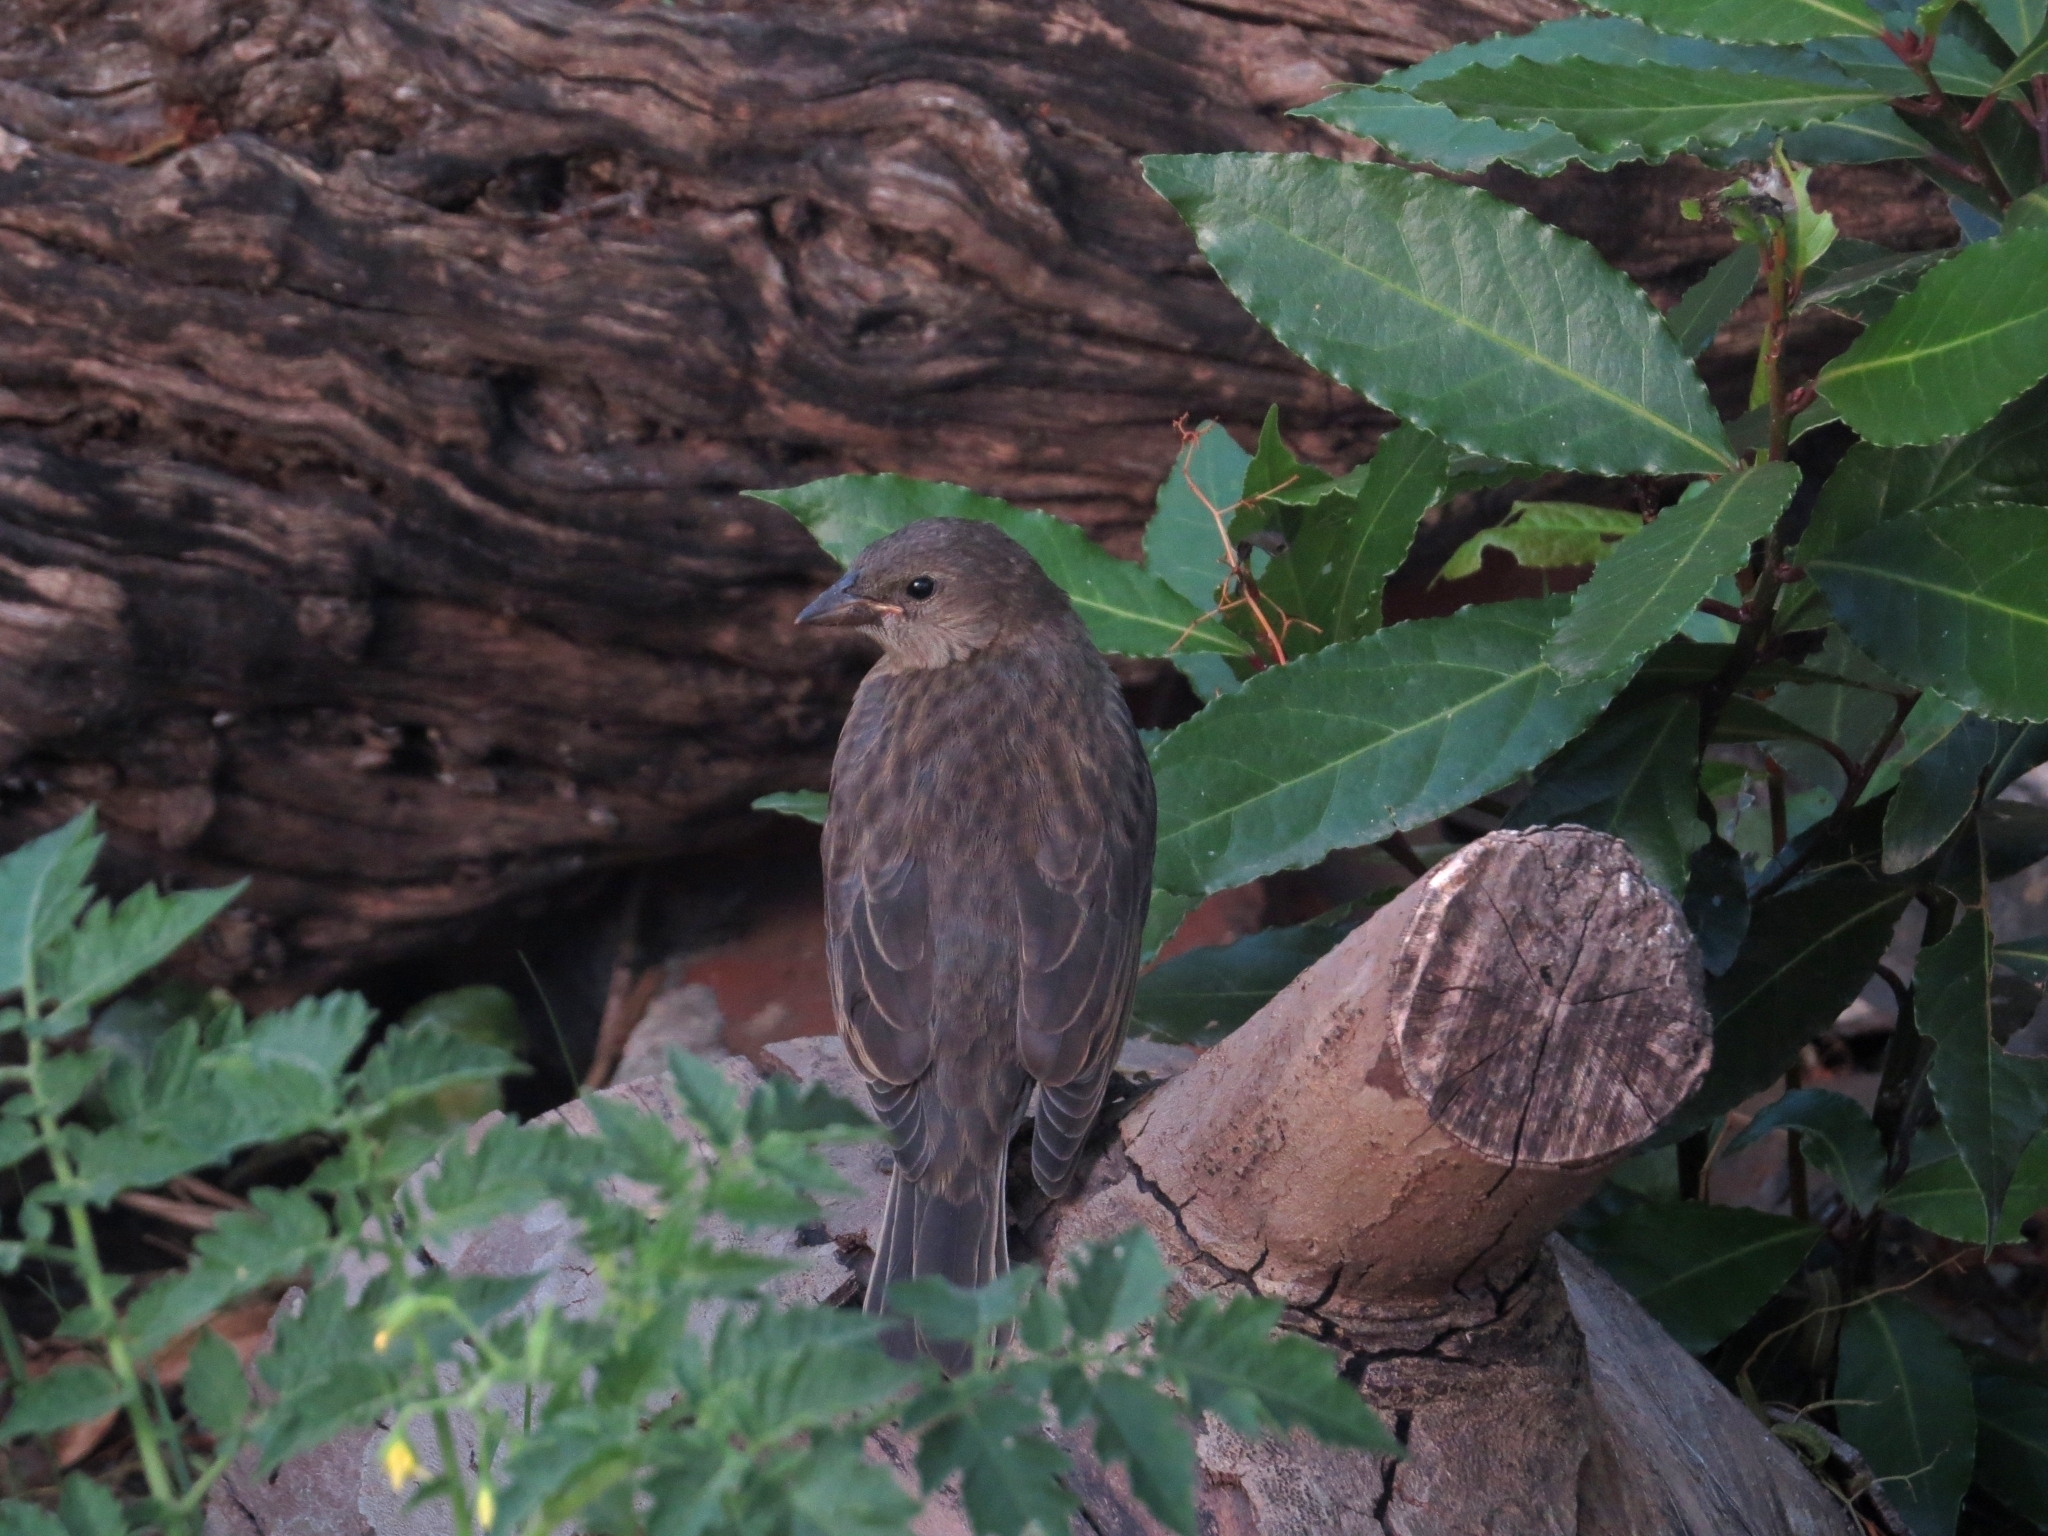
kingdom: Animalia
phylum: Chordata
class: Aves
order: Passeriformes
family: Icteridae
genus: Molothrus
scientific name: Molothrus bonariensis
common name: Shiny cowbird
